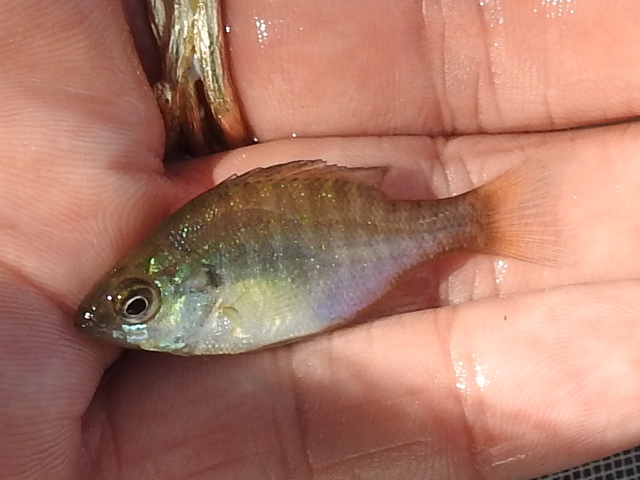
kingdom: Animalia
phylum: Chordata
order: Perciformes
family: Centrarchidae
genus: Lepomis
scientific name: Lepomis macrochirus
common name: Bluegill
